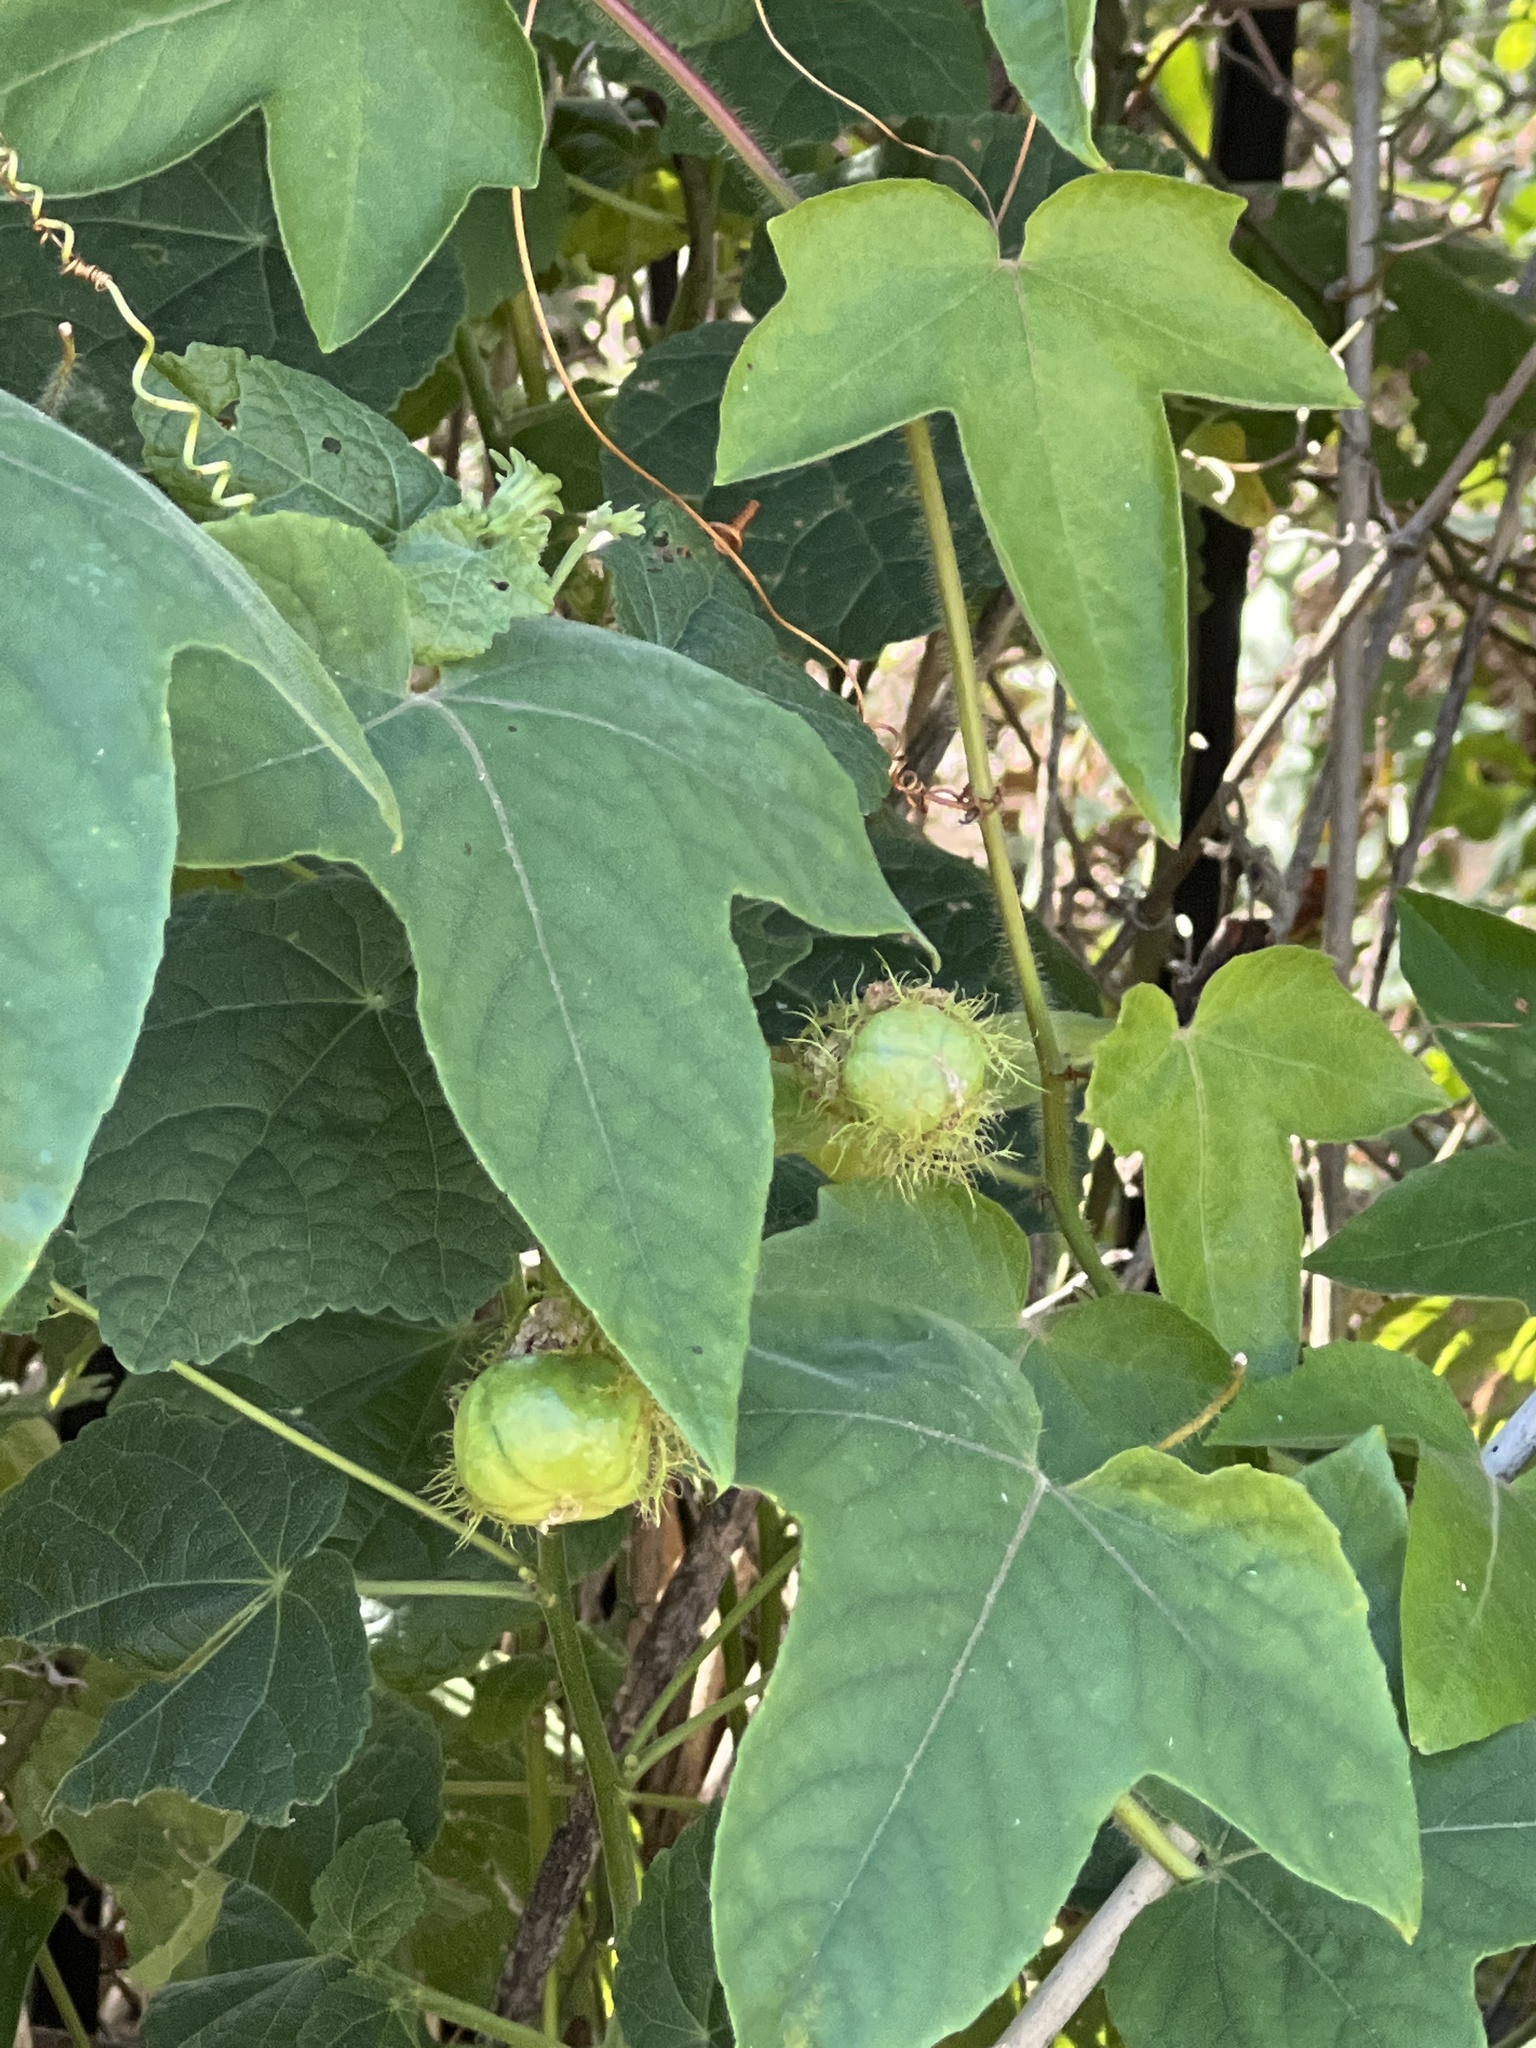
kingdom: Plantae
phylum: Tracheophyta
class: Magnoliopsida
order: Malpighiales
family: Passifloraceae
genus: Passiflora
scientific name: Passiflora
